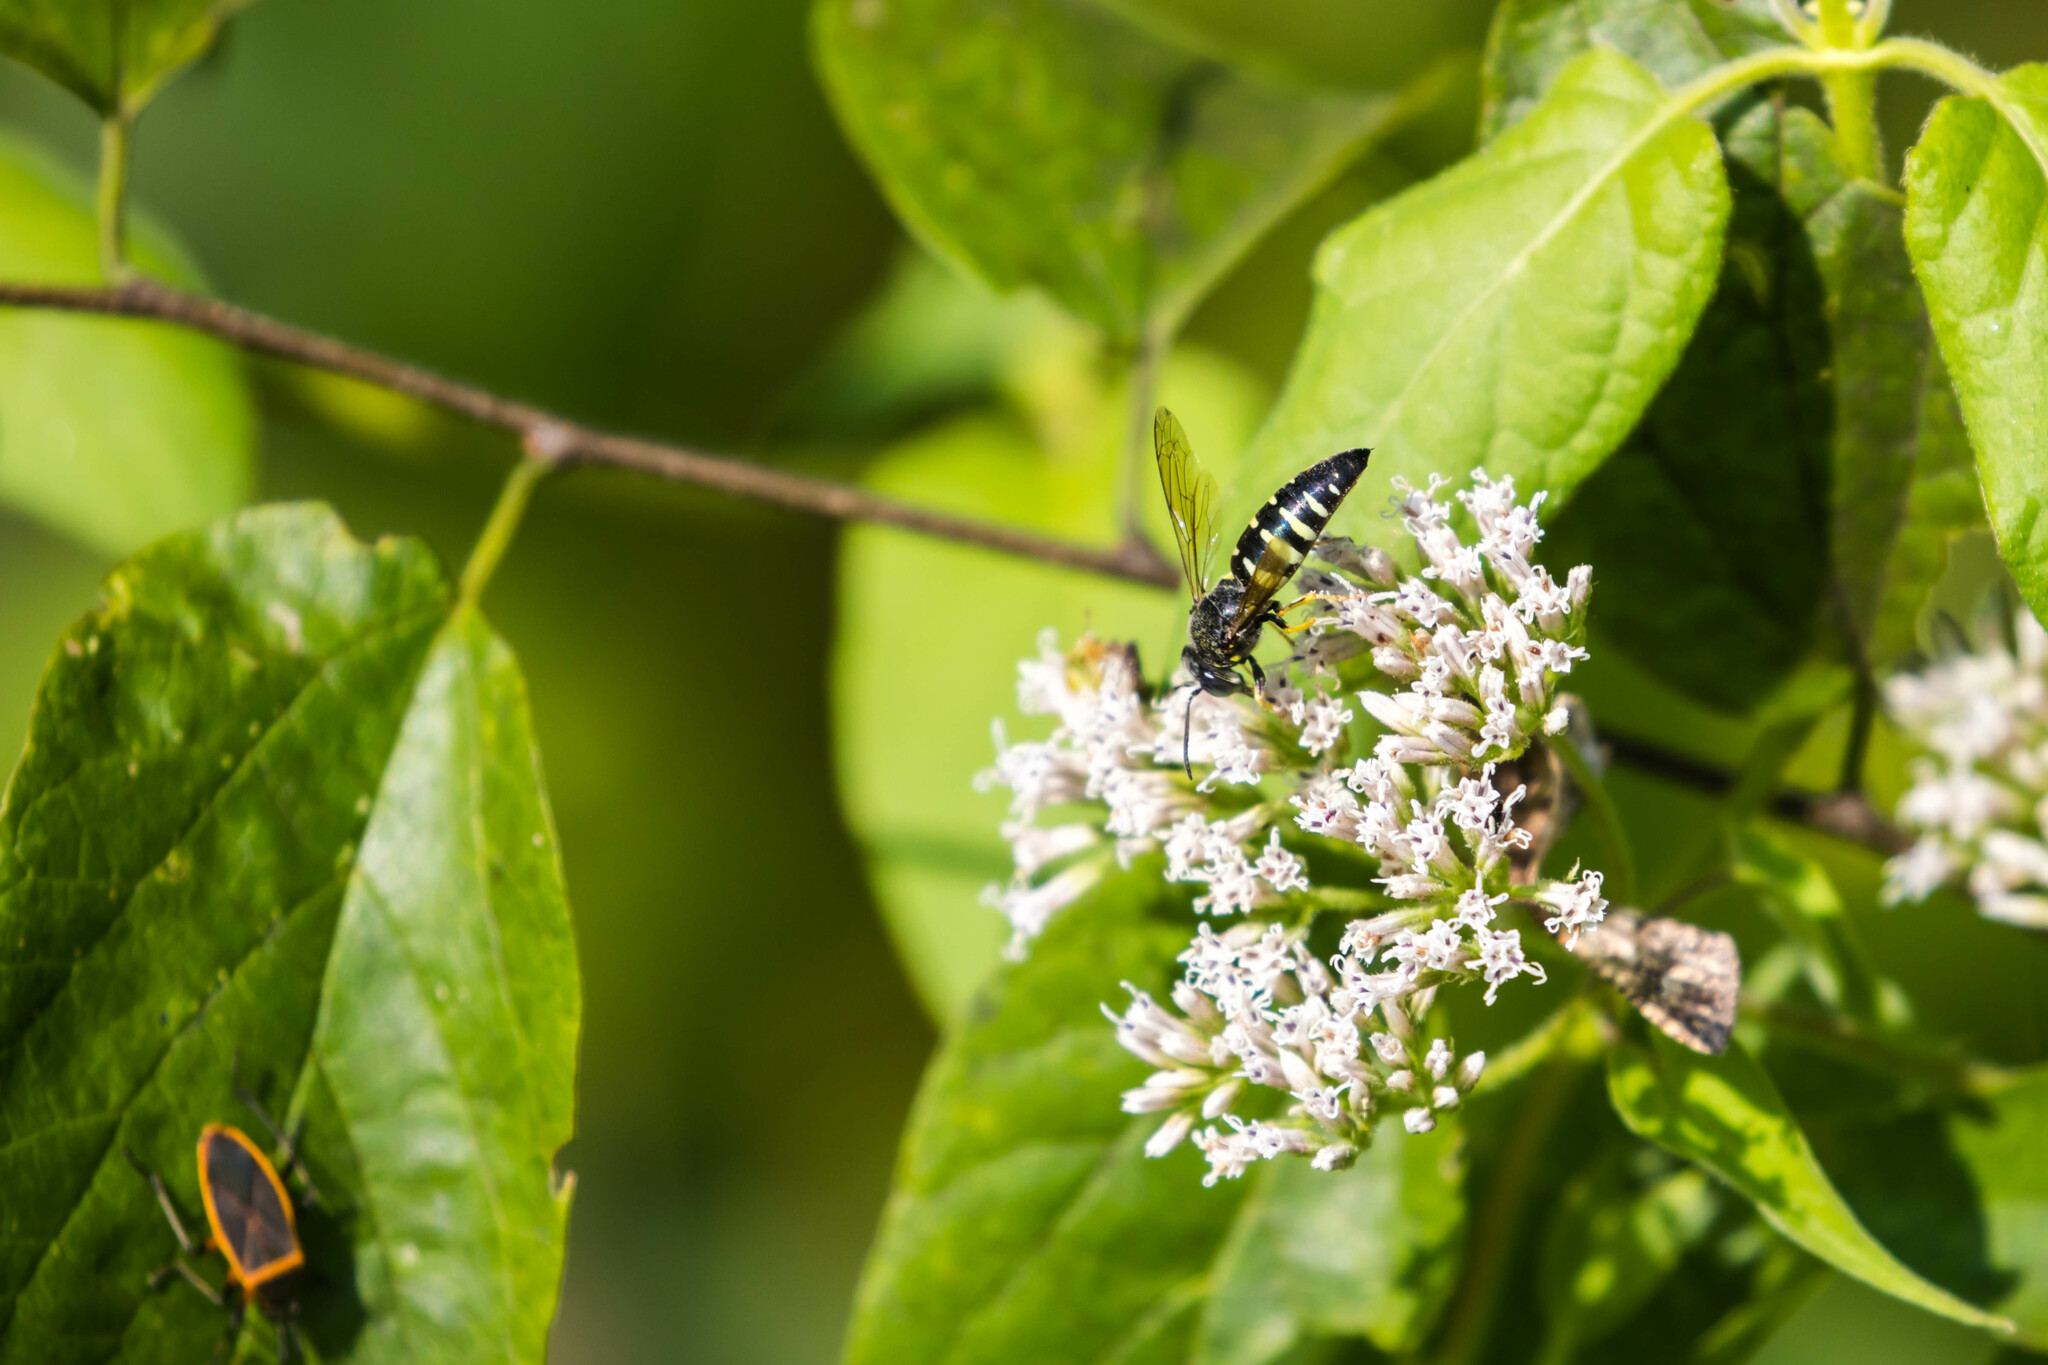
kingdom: Animalia
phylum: Arthropoda
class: Insecta
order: Hymenoptera
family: Crabronidae
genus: Bicyrtes
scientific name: Bicyrtes quadrifasciatus
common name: Four-banded stink bug hunter wasp
